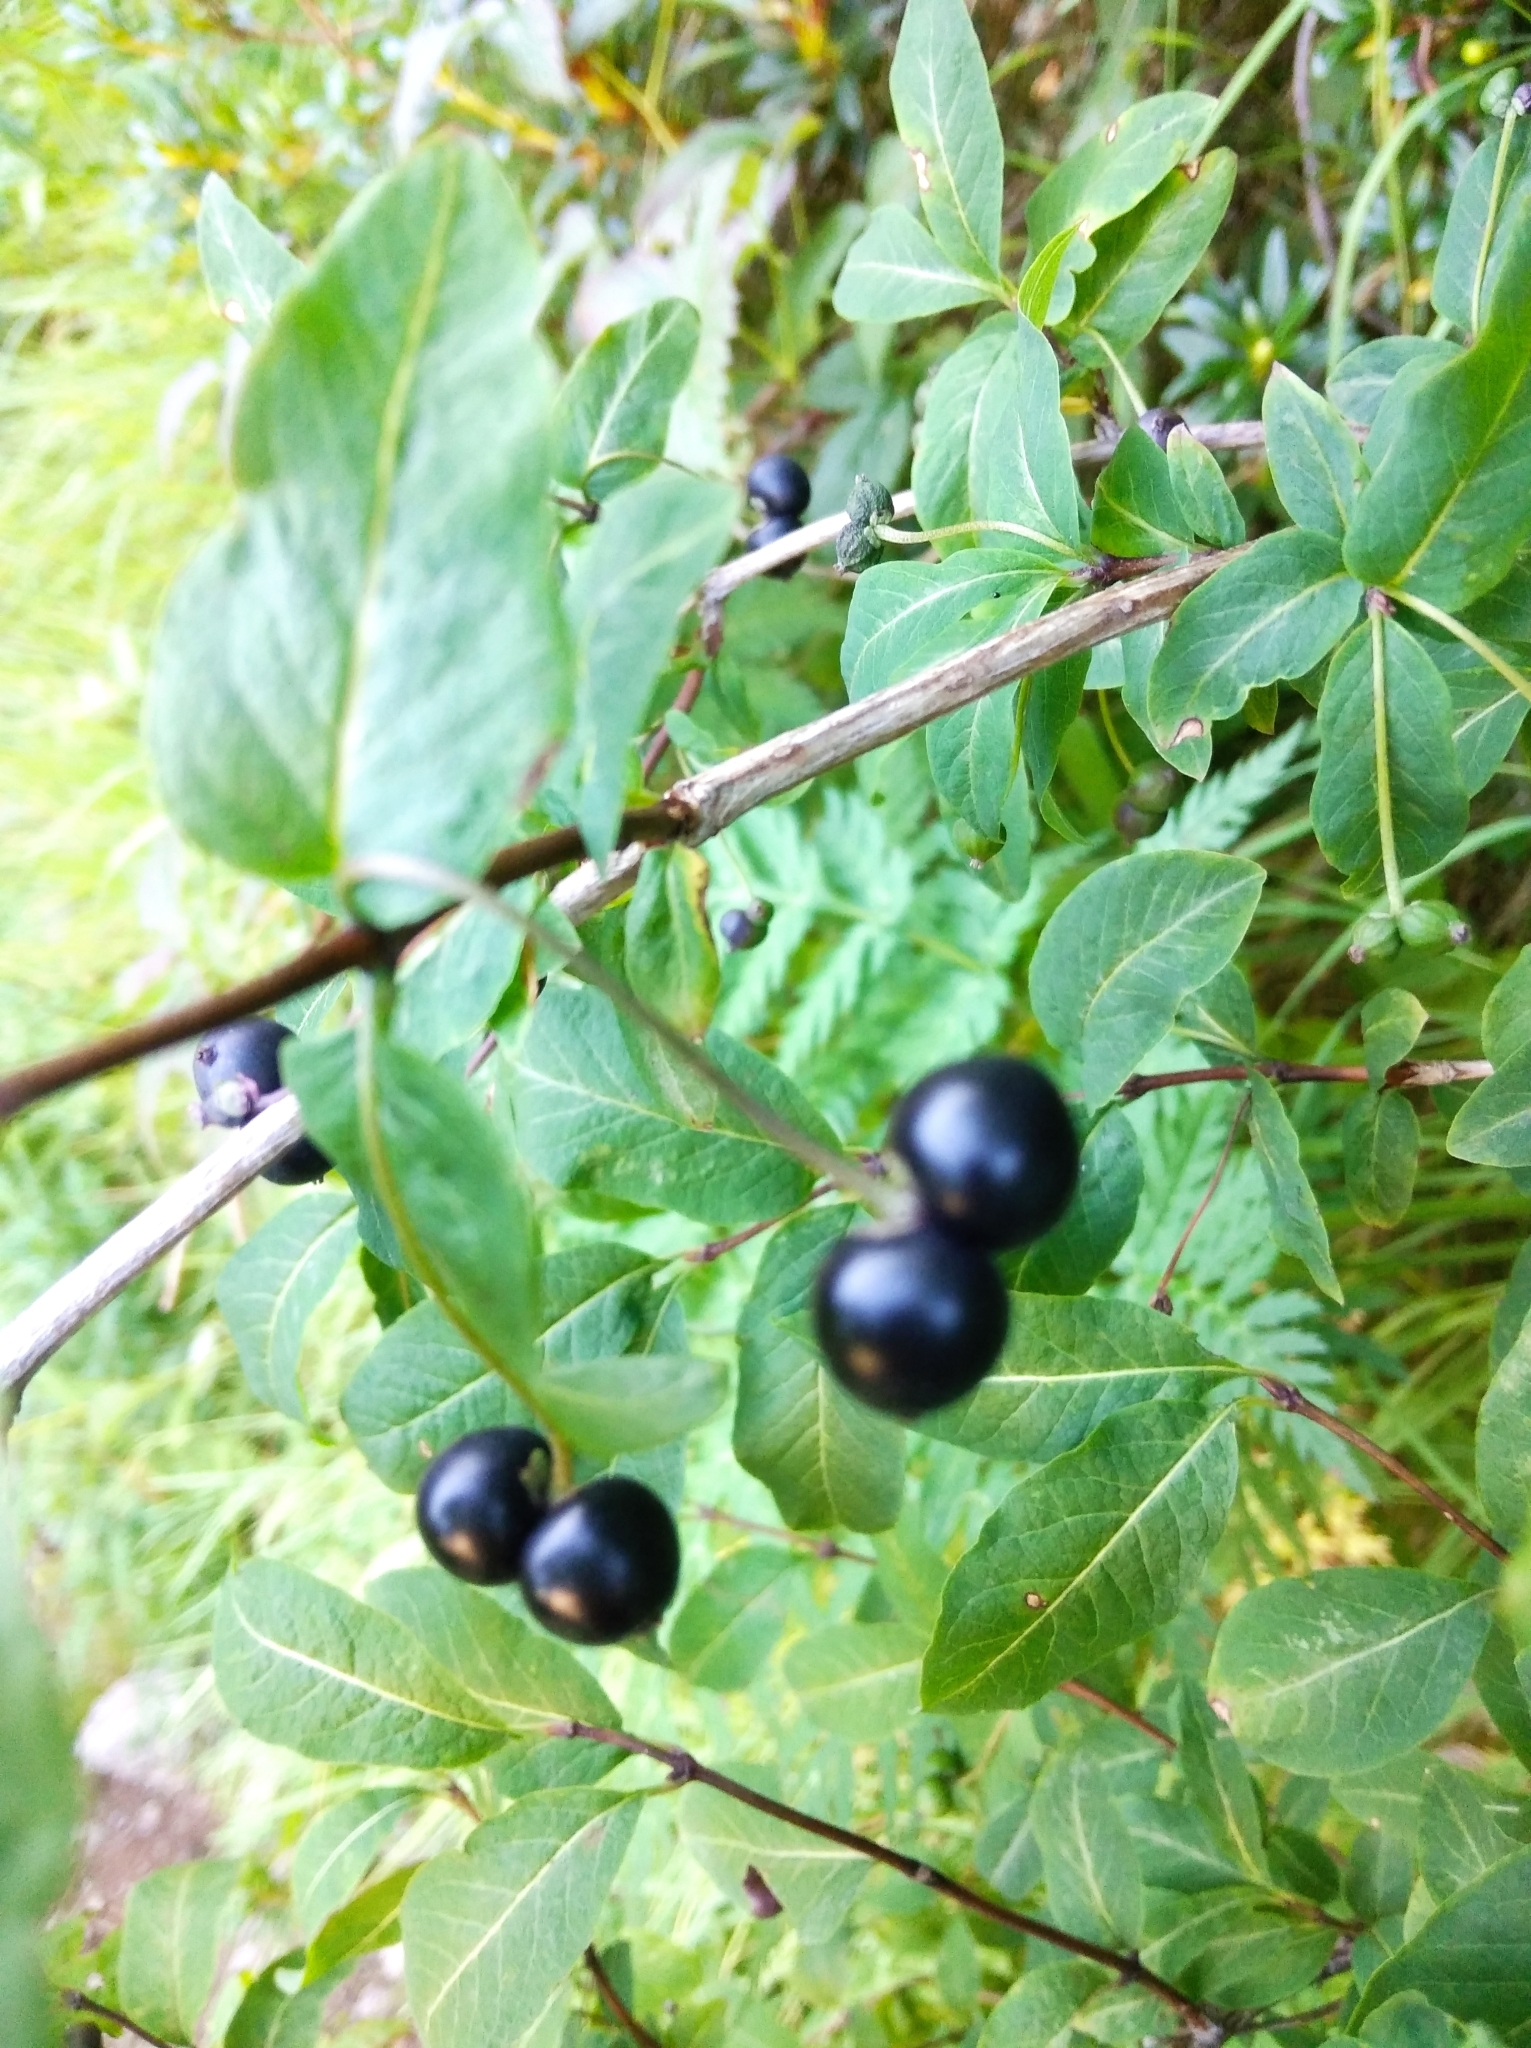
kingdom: Plantae
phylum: Tracheophyta
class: Magnoliopsida
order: Dipsacales
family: Caprifoliaceae
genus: Lonicera
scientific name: Lonicera nigra
